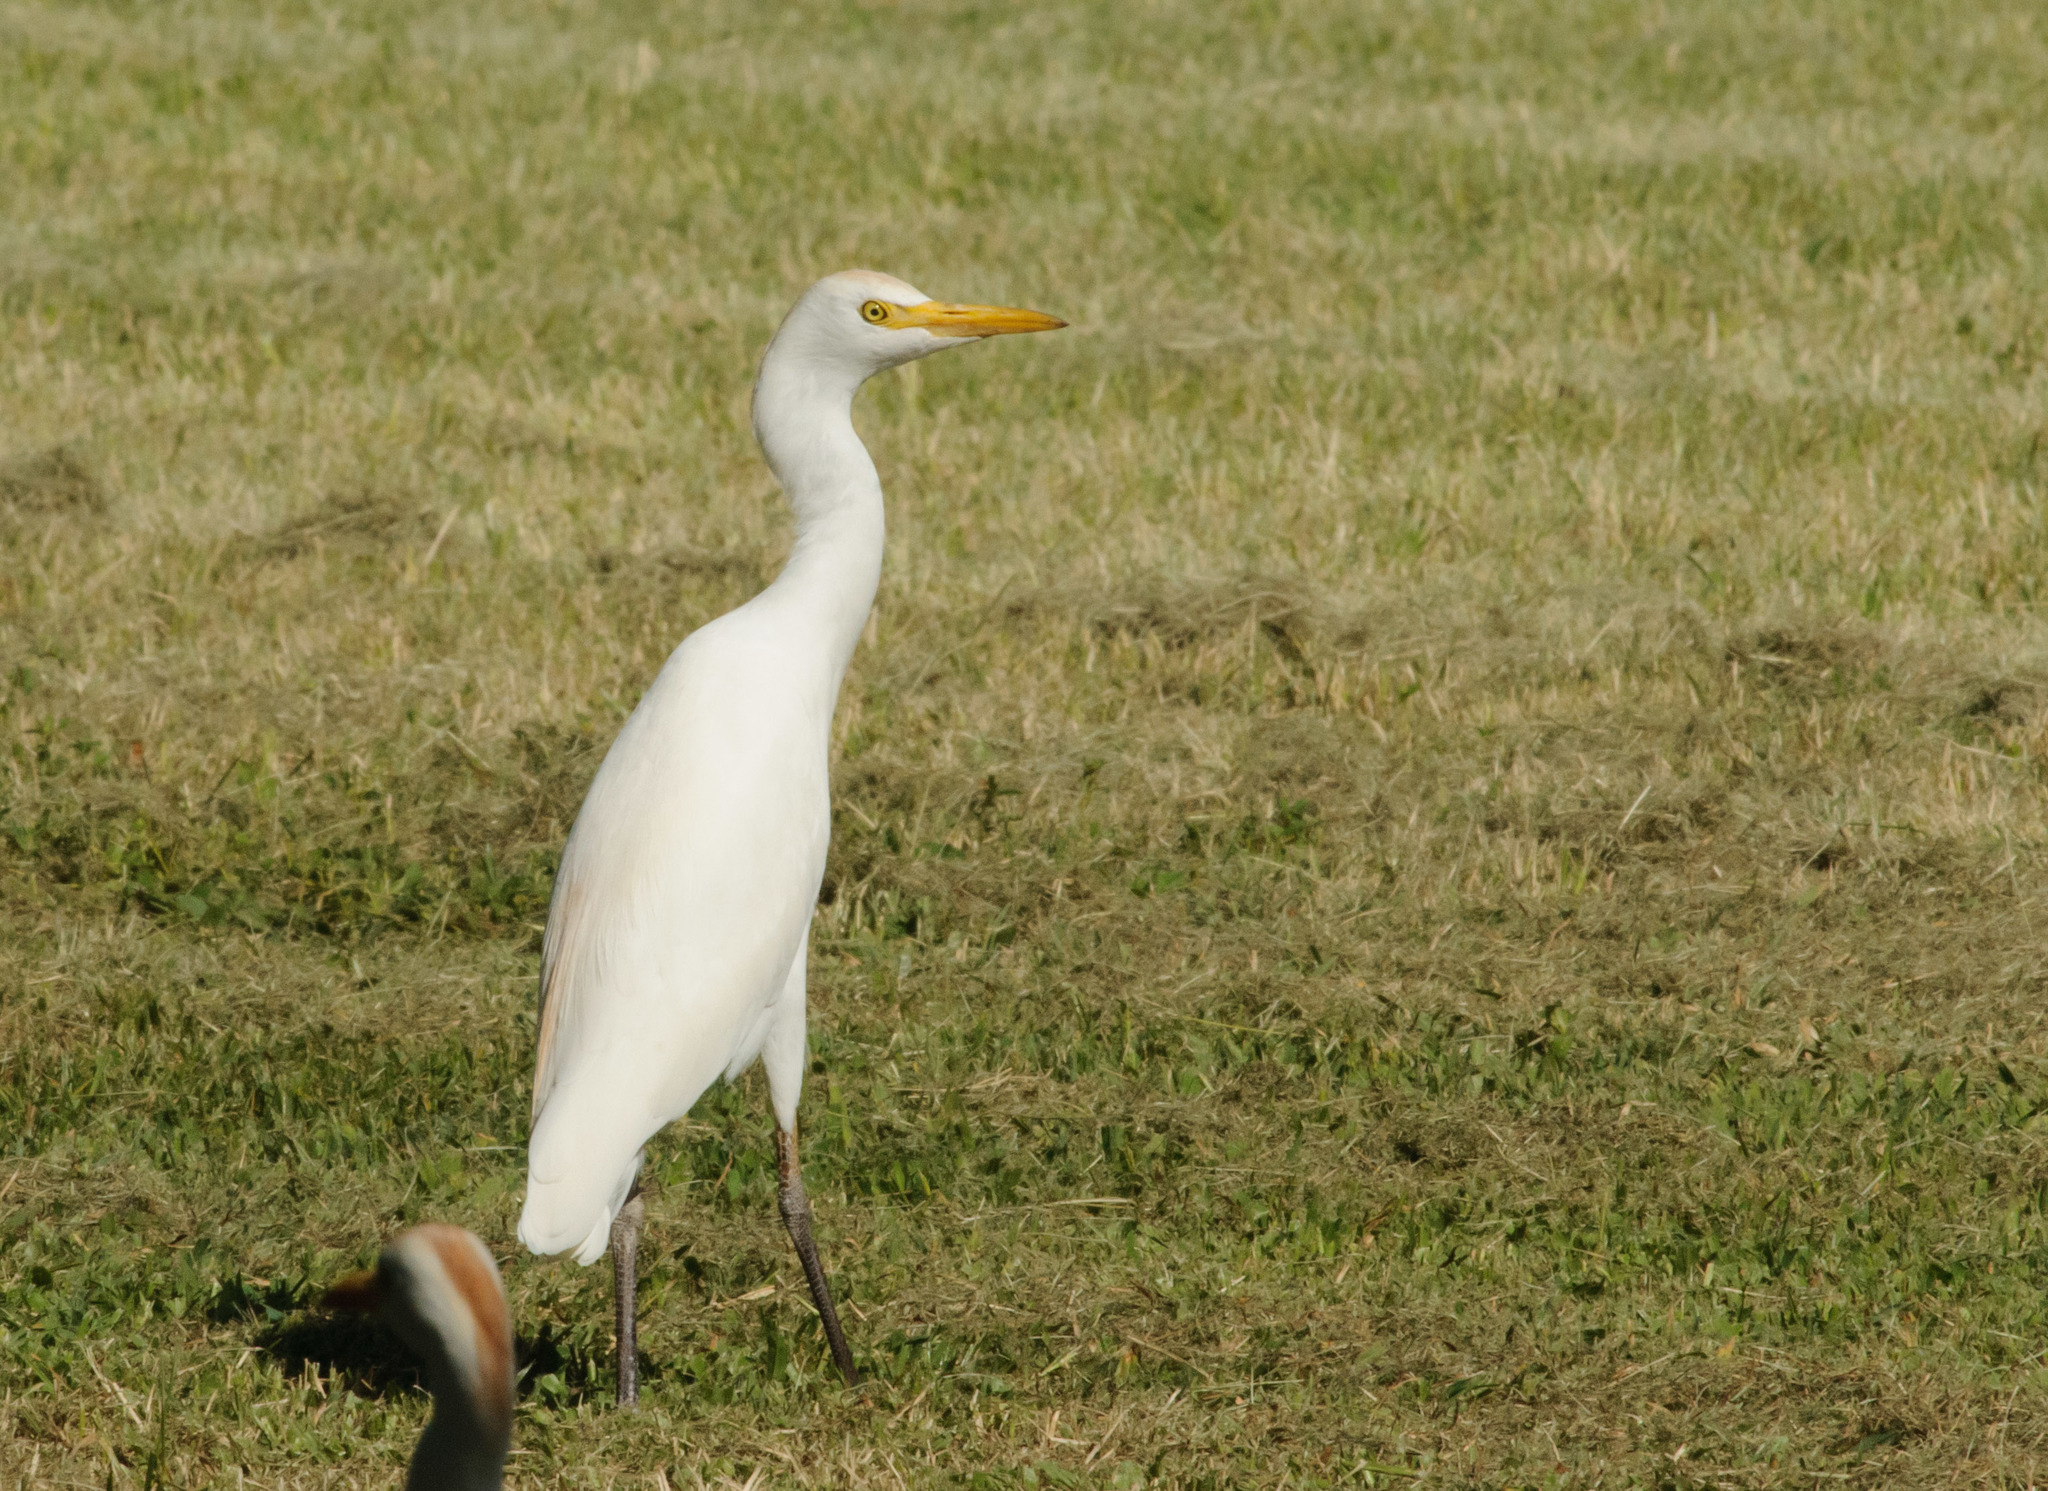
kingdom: Animalia
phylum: Chordata
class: Aves
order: Pelecaniformes
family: Ardeidae
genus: Bubulcus
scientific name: Bubulcus ibis
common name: Cattle egret
